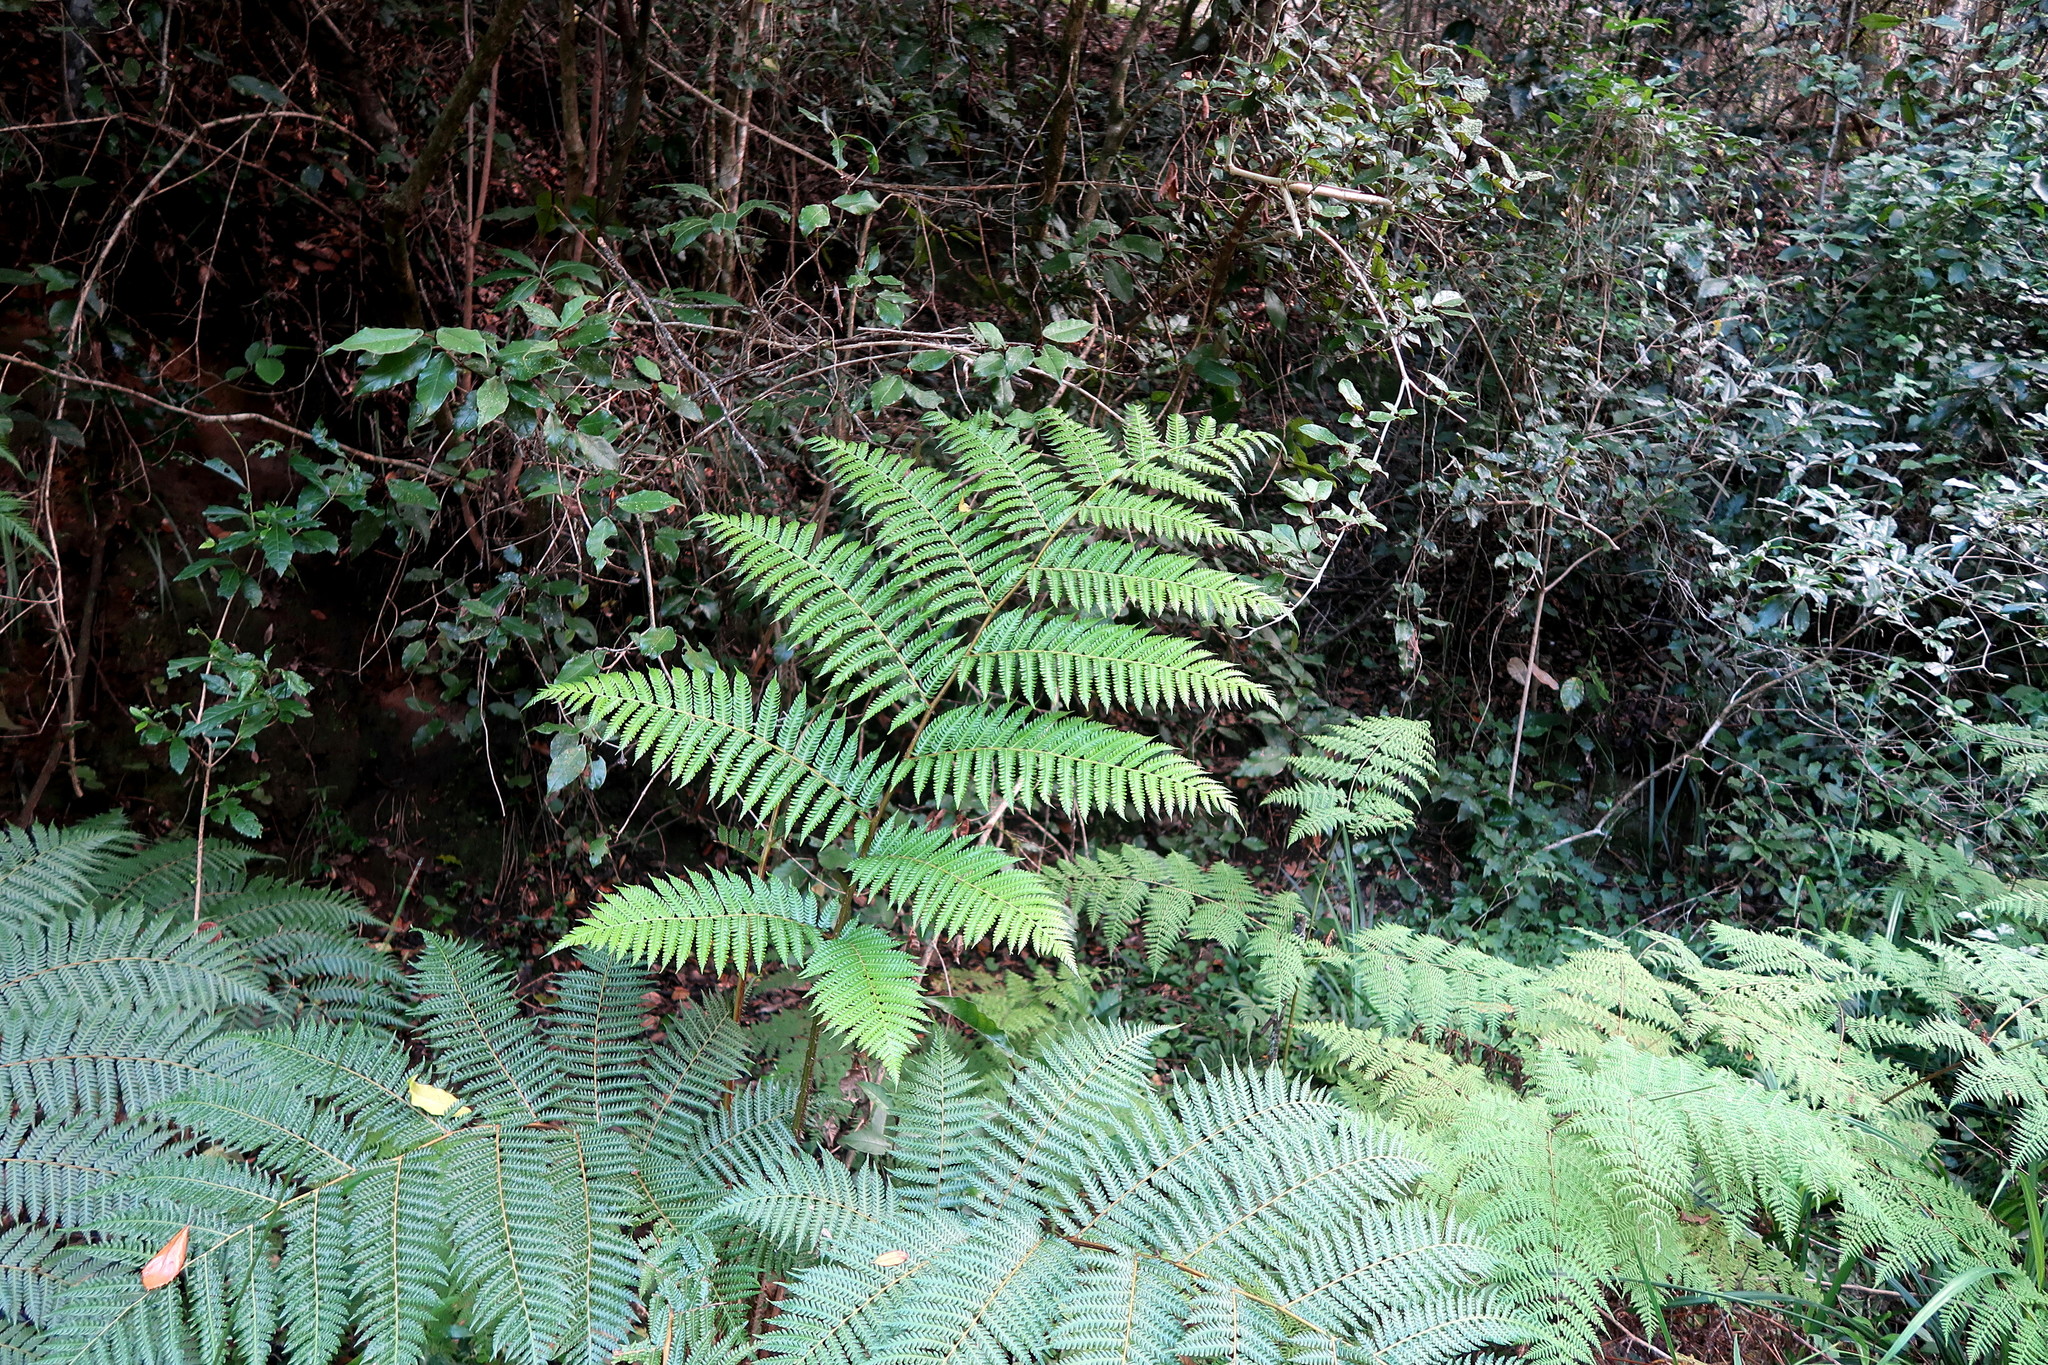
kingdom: Plantae
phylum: Tracheophyta
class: Polypodiopsida
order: Cyatheales
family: Cyatheaceae
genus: Sphaeropteris
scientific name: Sphaeropteris cooperi
